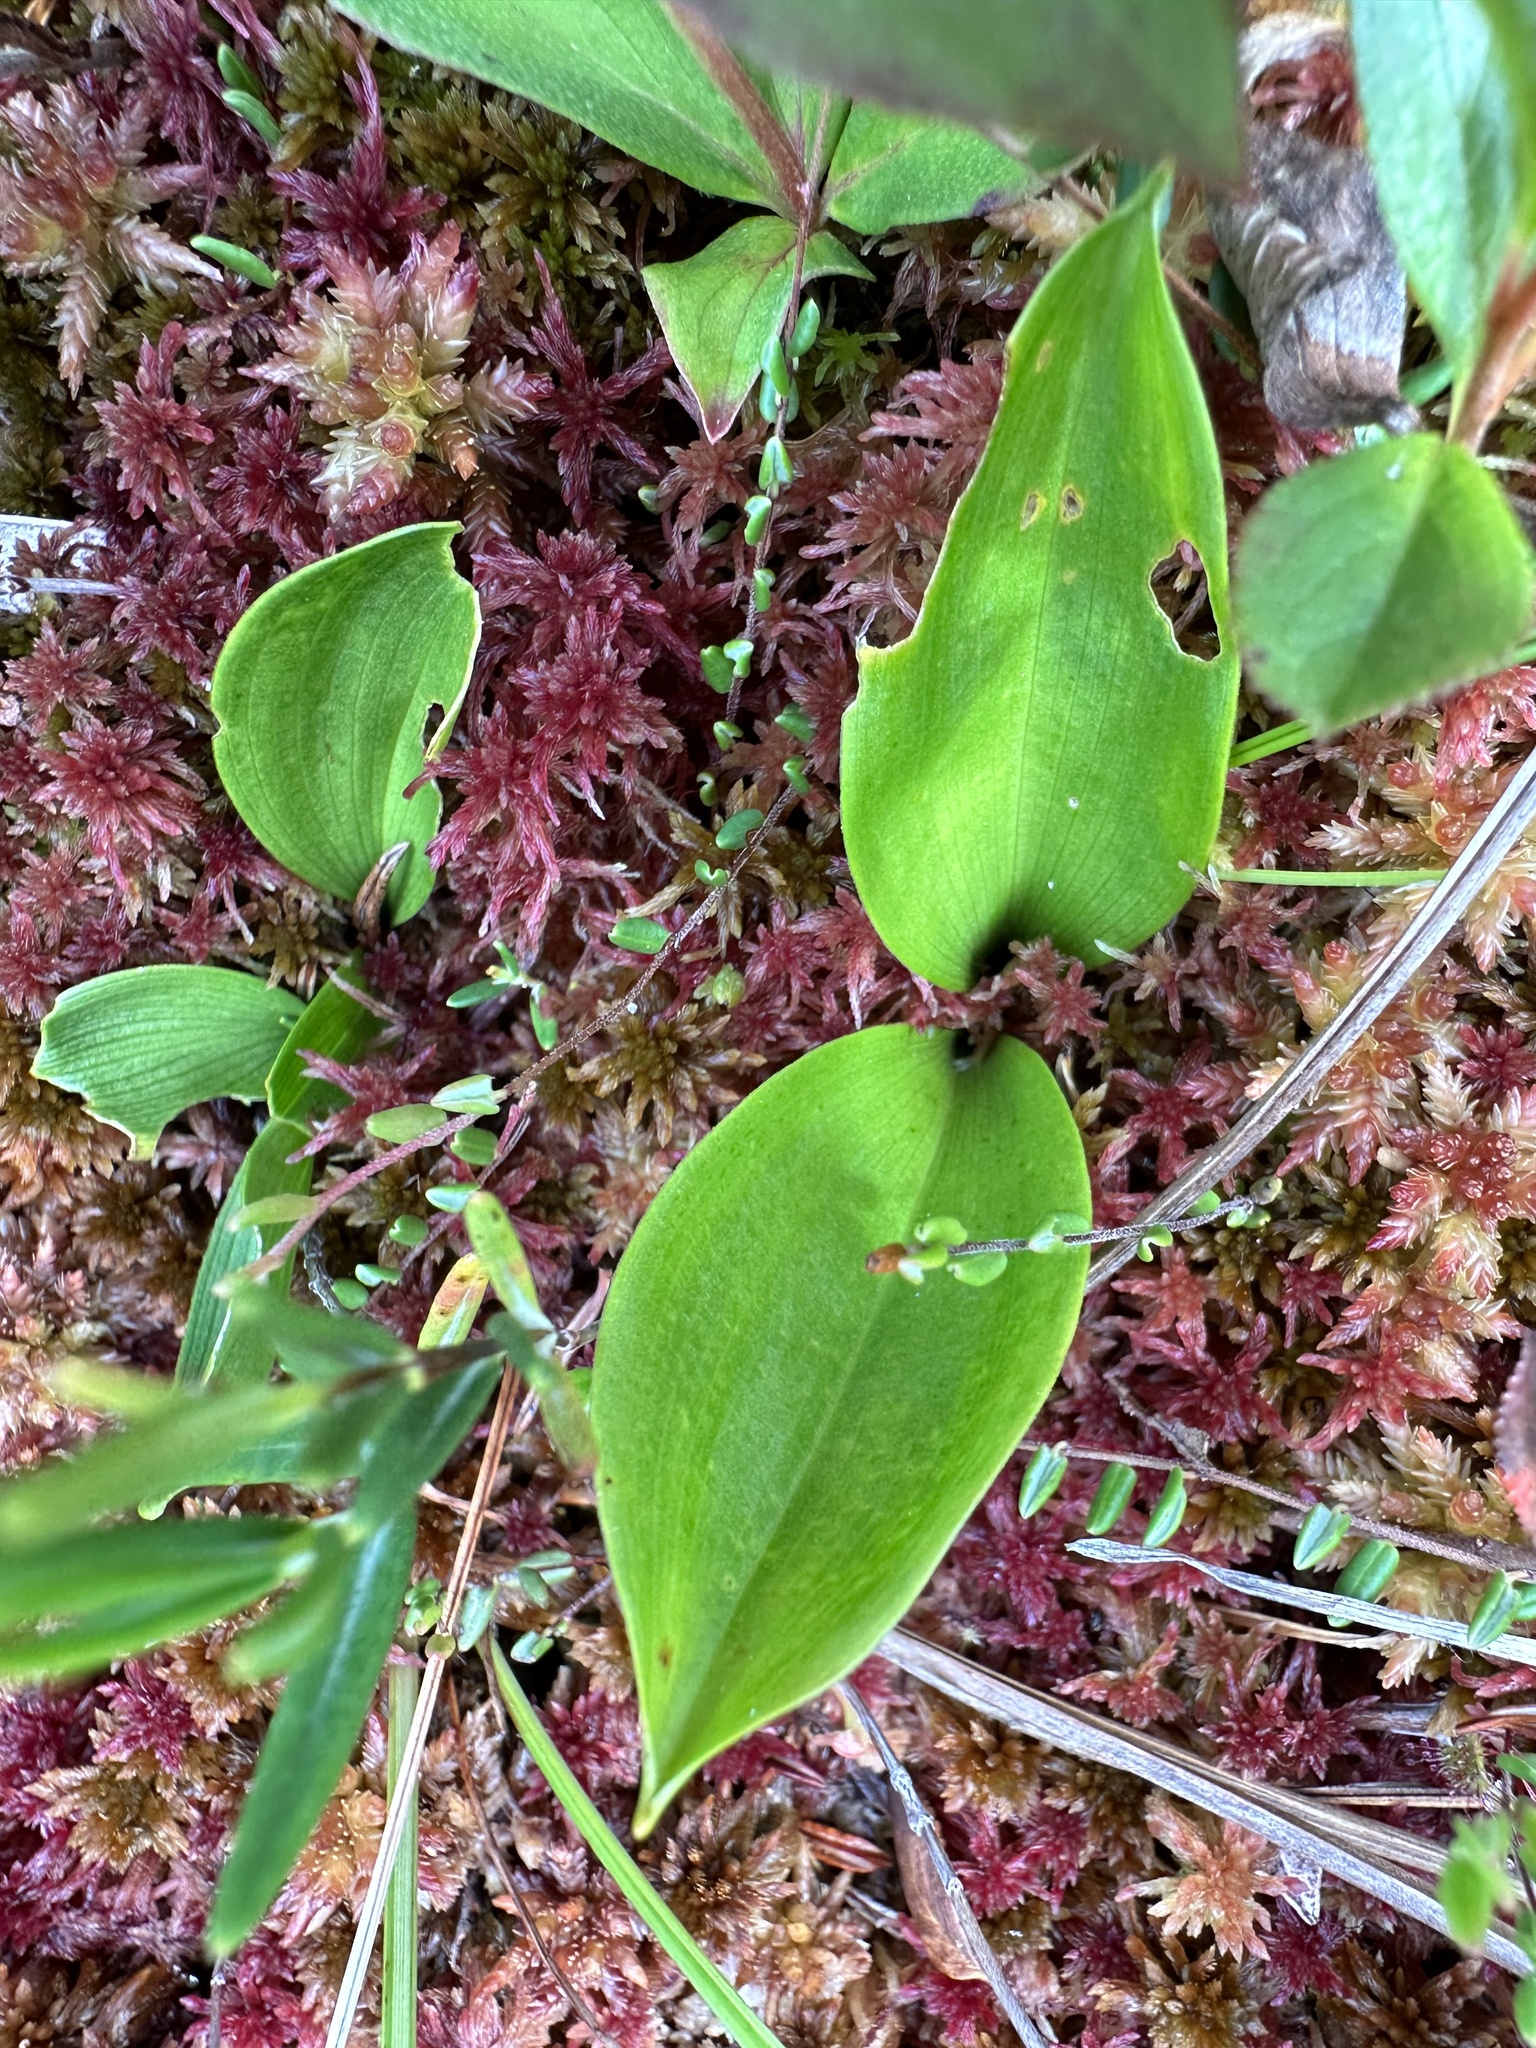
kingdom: Plantae
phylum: Tracheophyta
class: Liliopsida
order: Asparagales
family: Asparagaceae
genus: Maianthemum
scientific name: Maianthemum trifolium
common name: Swamp false solomon's seal
